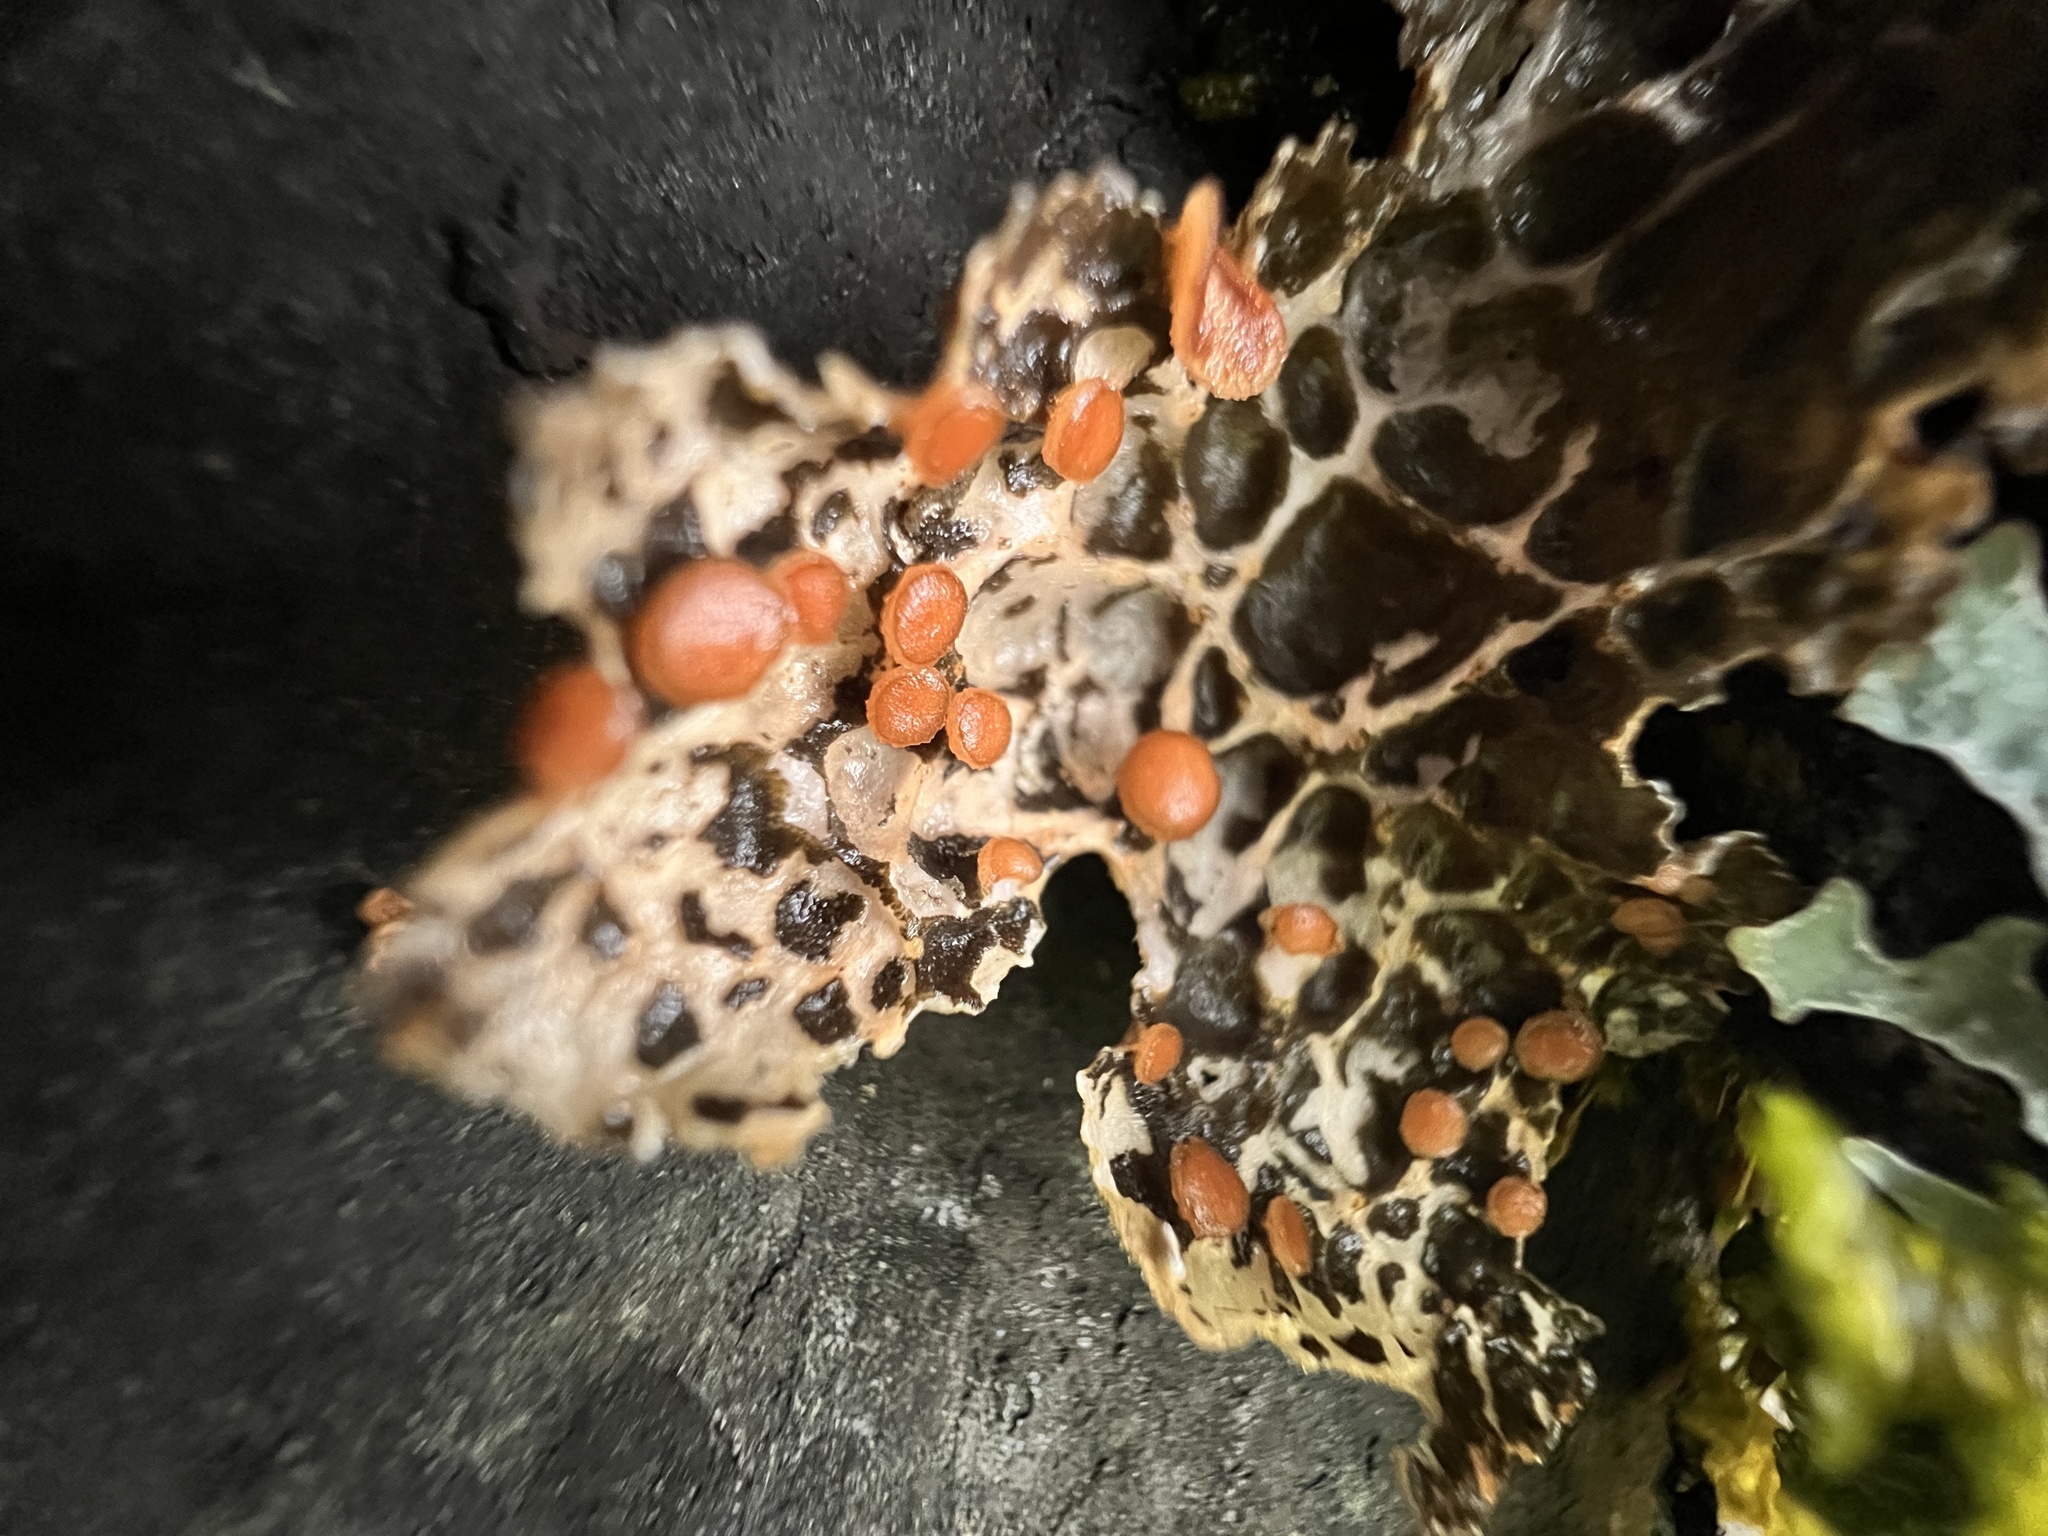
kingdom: Fungi
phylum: Ascomycota
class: Lecanoromycetes
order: Peltigerales
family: Lobariaceae
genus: Lobaria
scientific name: Lobaria anthraspis
